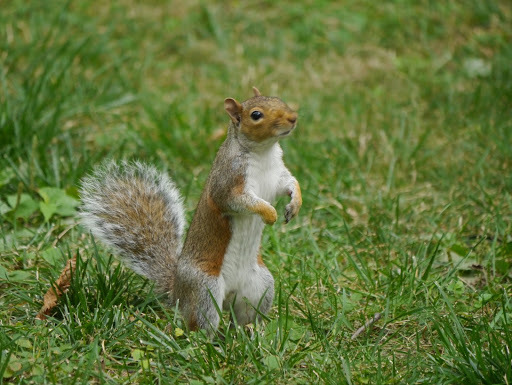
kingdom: Animalia
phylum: Chordata
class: Mammalia
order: Rodentia
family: Sciuridae
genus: Sciurus
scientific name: Sciurus carolinensis
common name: Eastern gray squirrel
